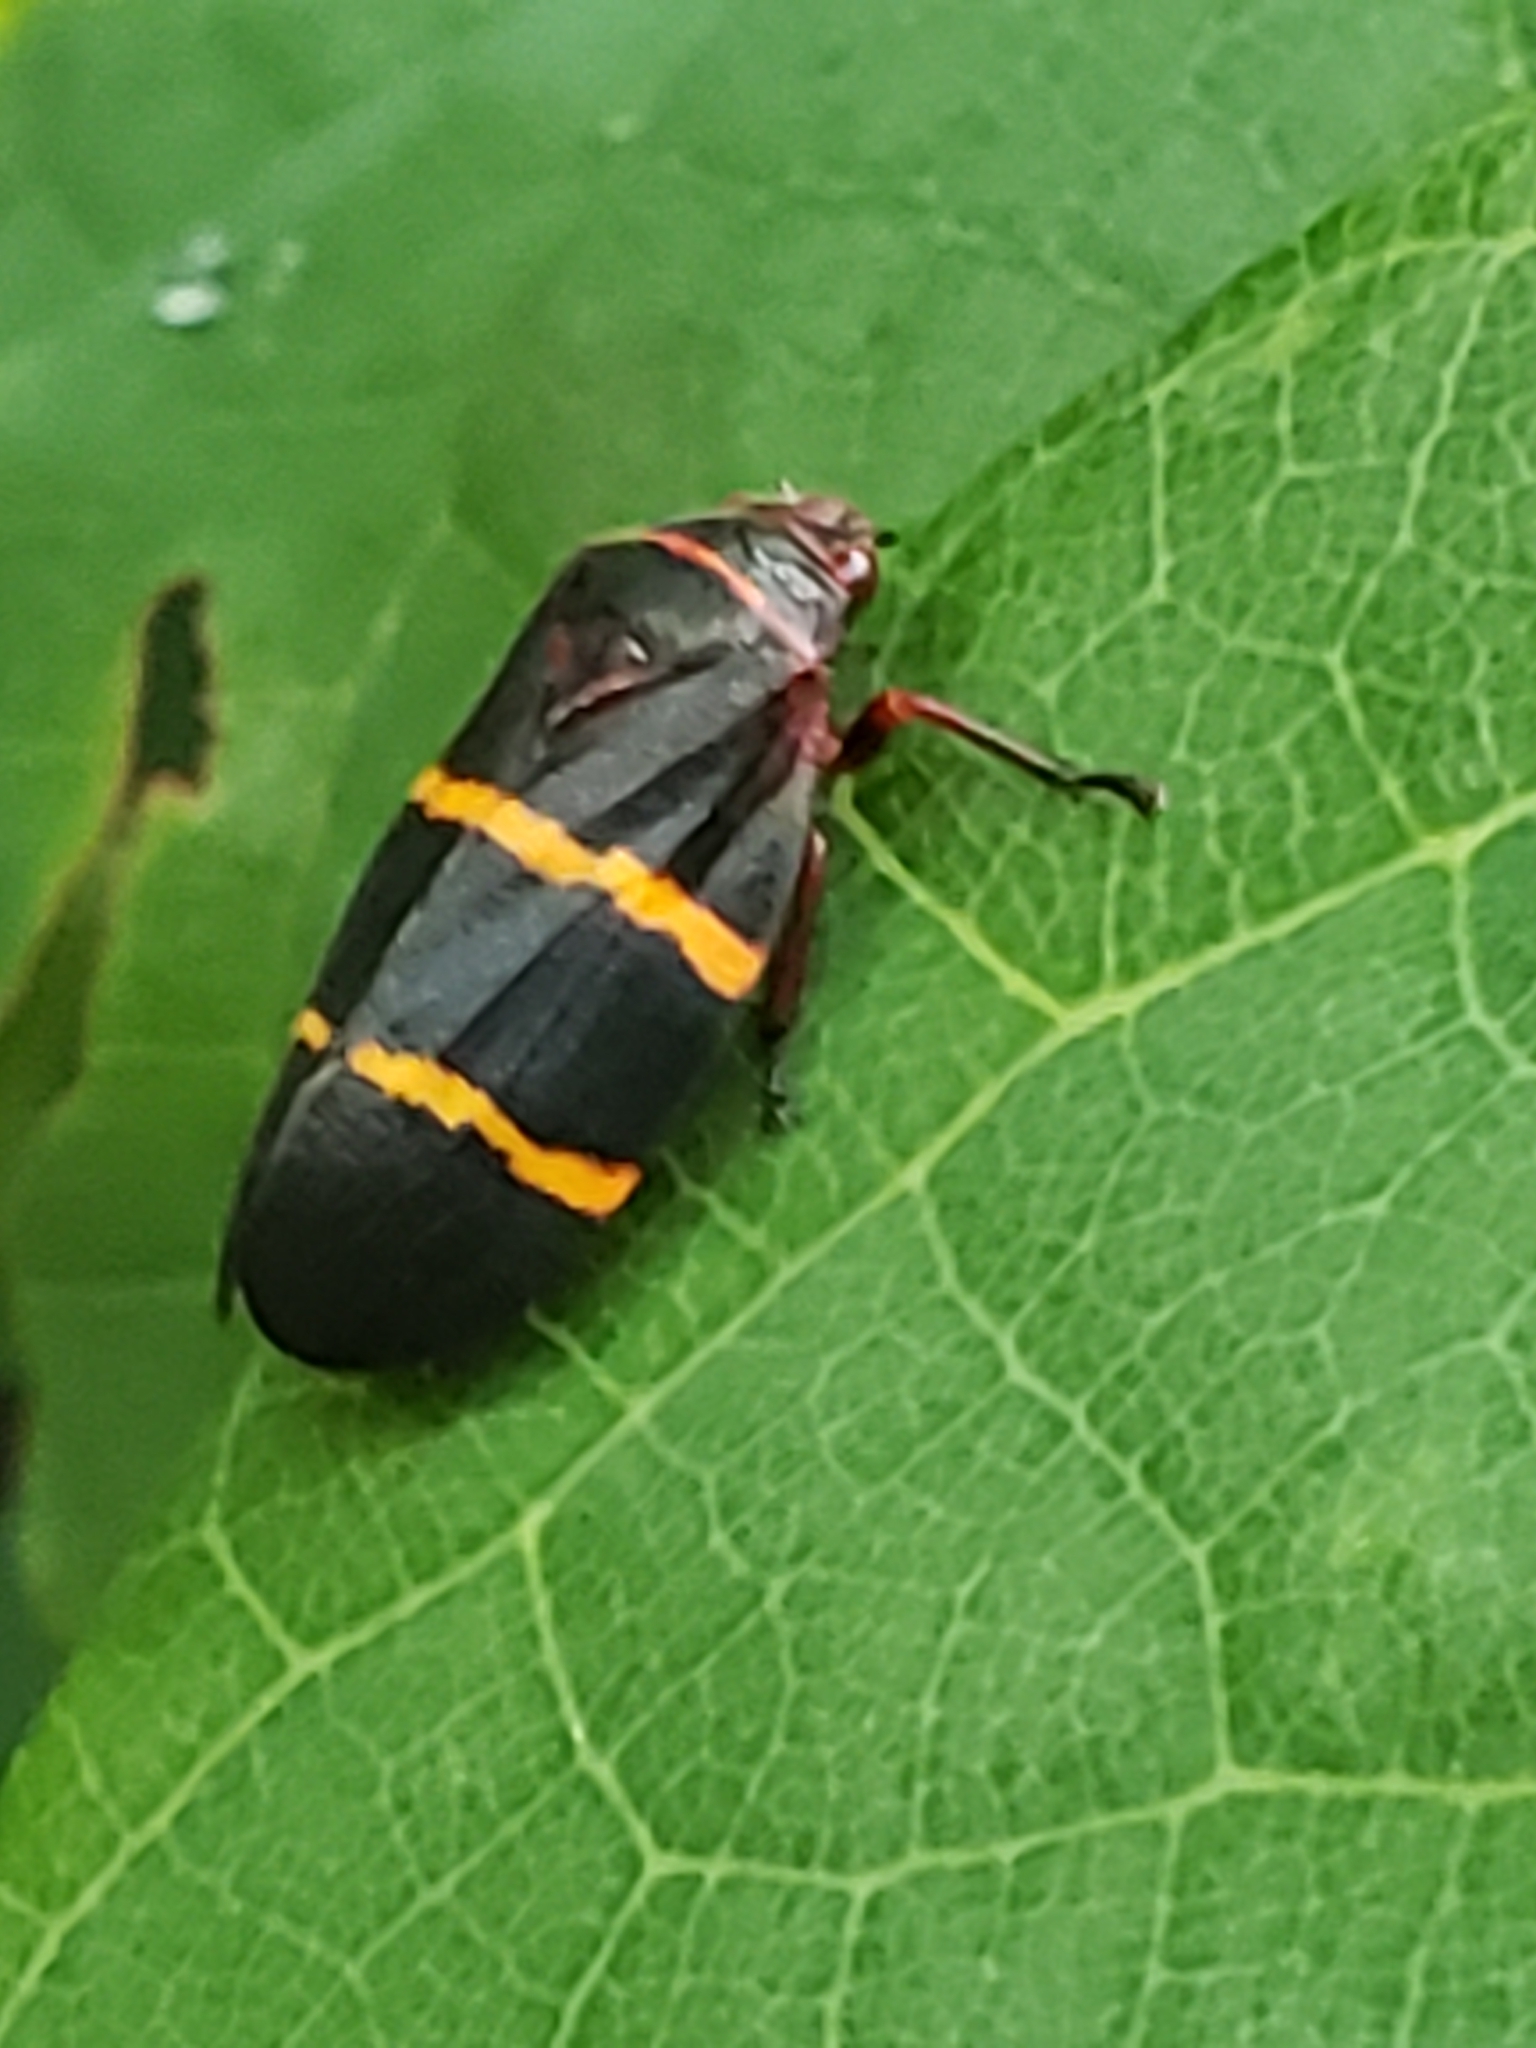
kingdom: Animalia
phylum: Arthropoda
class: Insecta
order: Hemiptera
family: Cercopidae
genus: Prosapia
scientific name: Prosapia bicincta
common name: Twolined spittlebug
